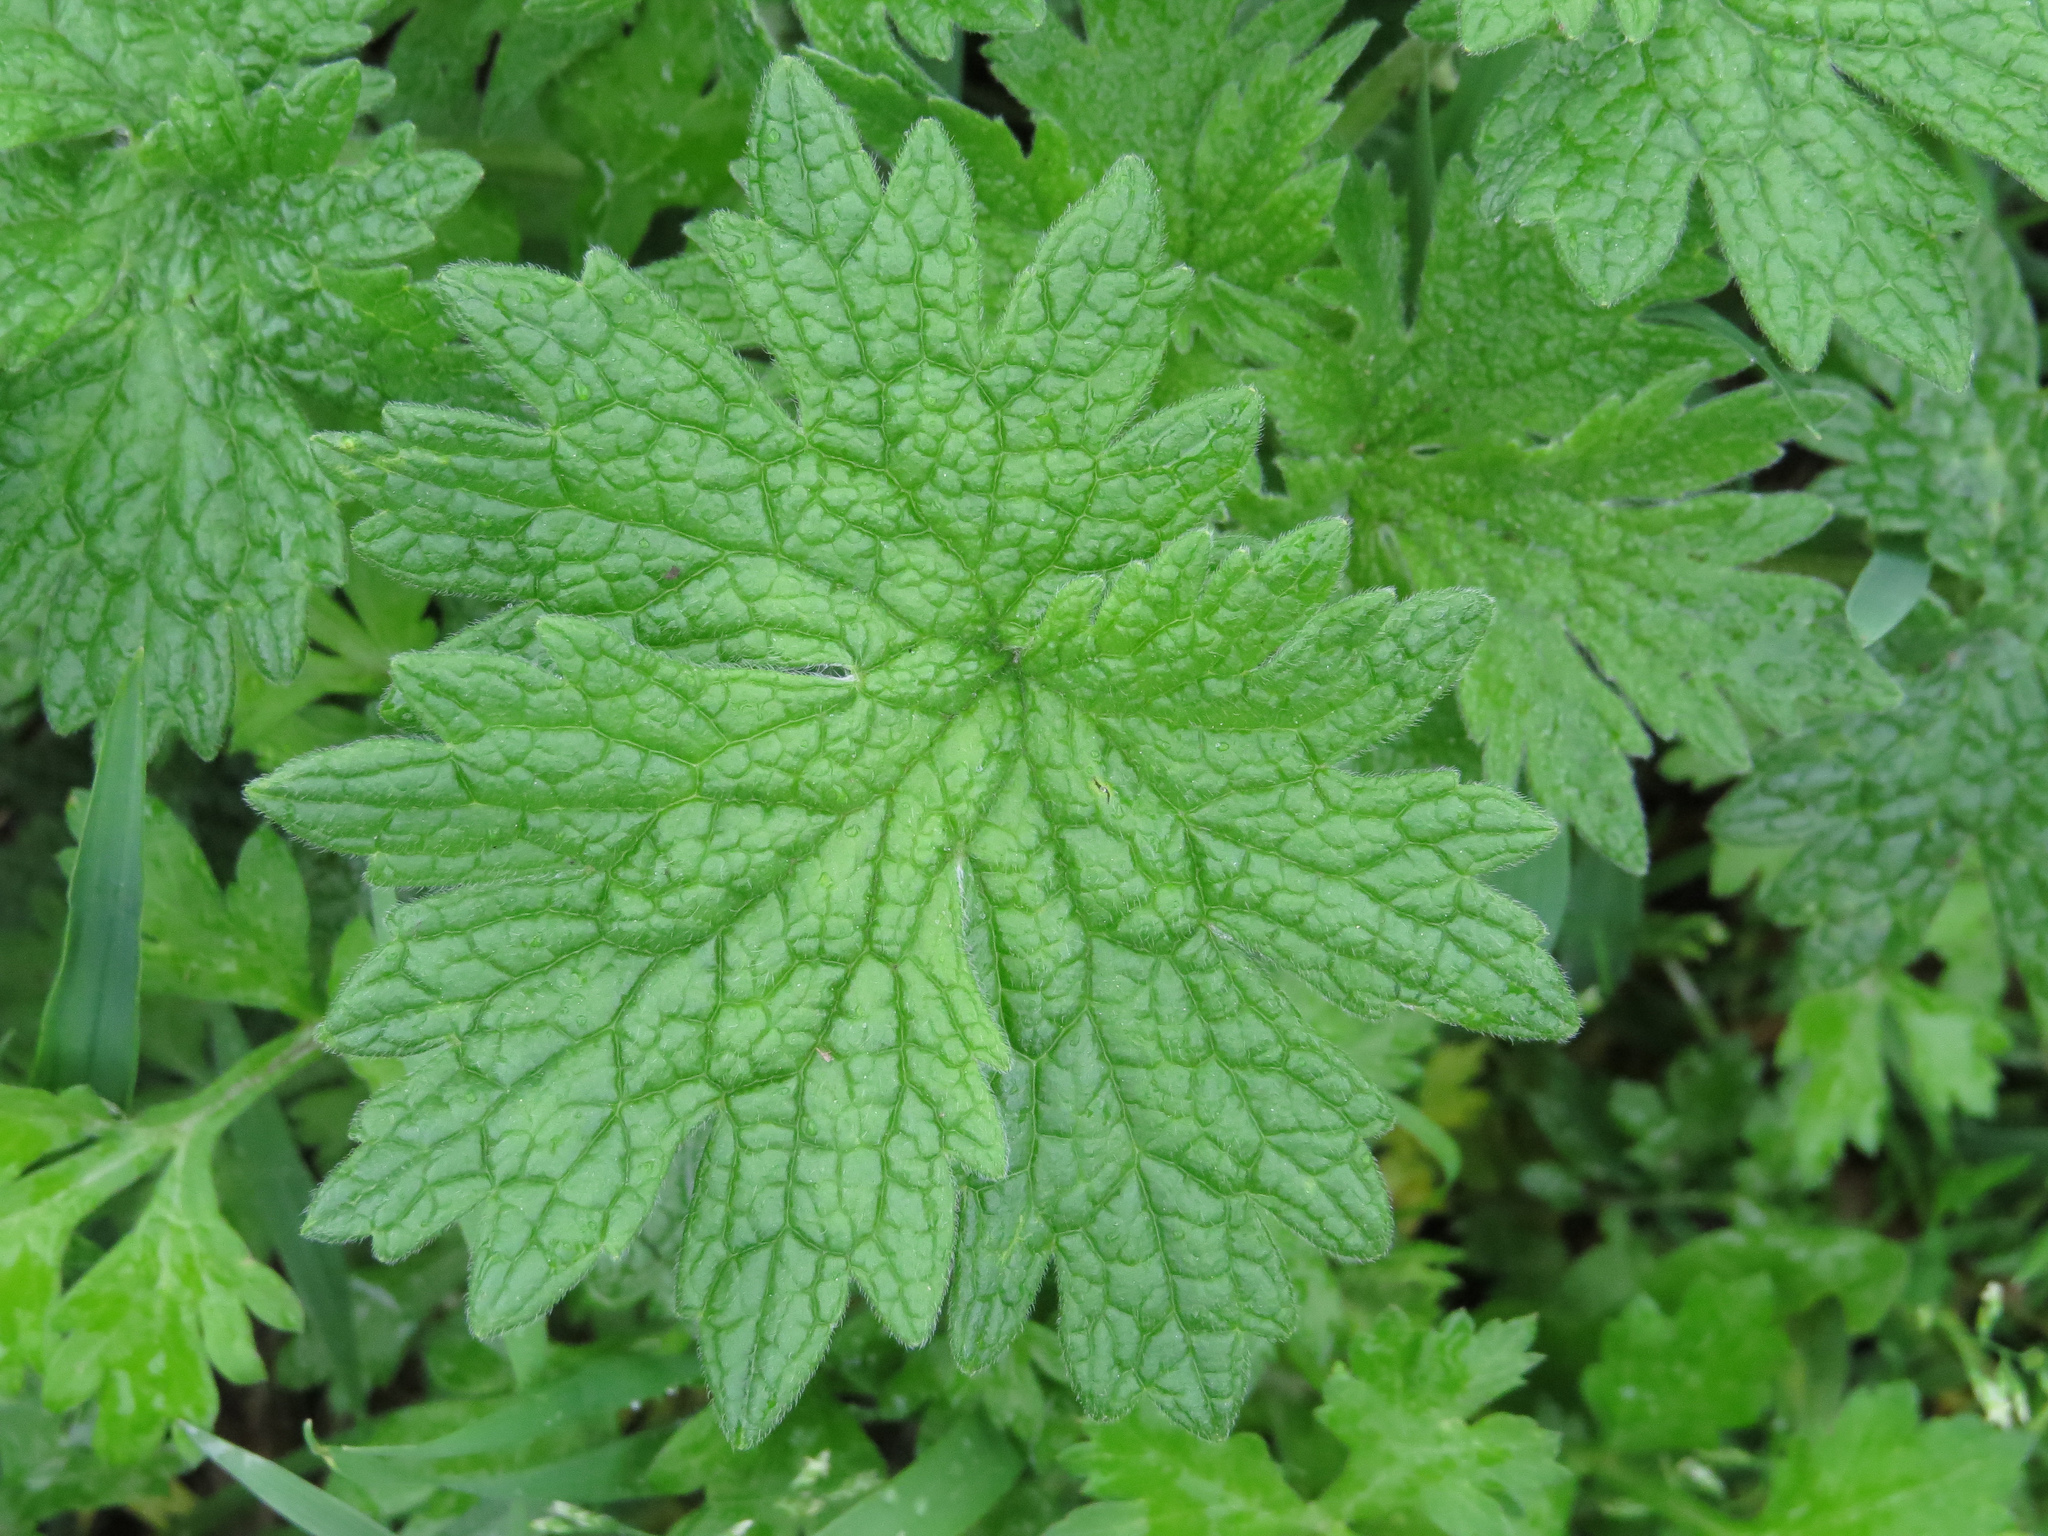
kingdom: Plantae
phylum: Tracheophyta
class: Magnoliopsida
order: Lamiales
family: Lamiaceae
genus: Leonurus
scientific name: Leonurus cardiaca
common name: Motherwort
